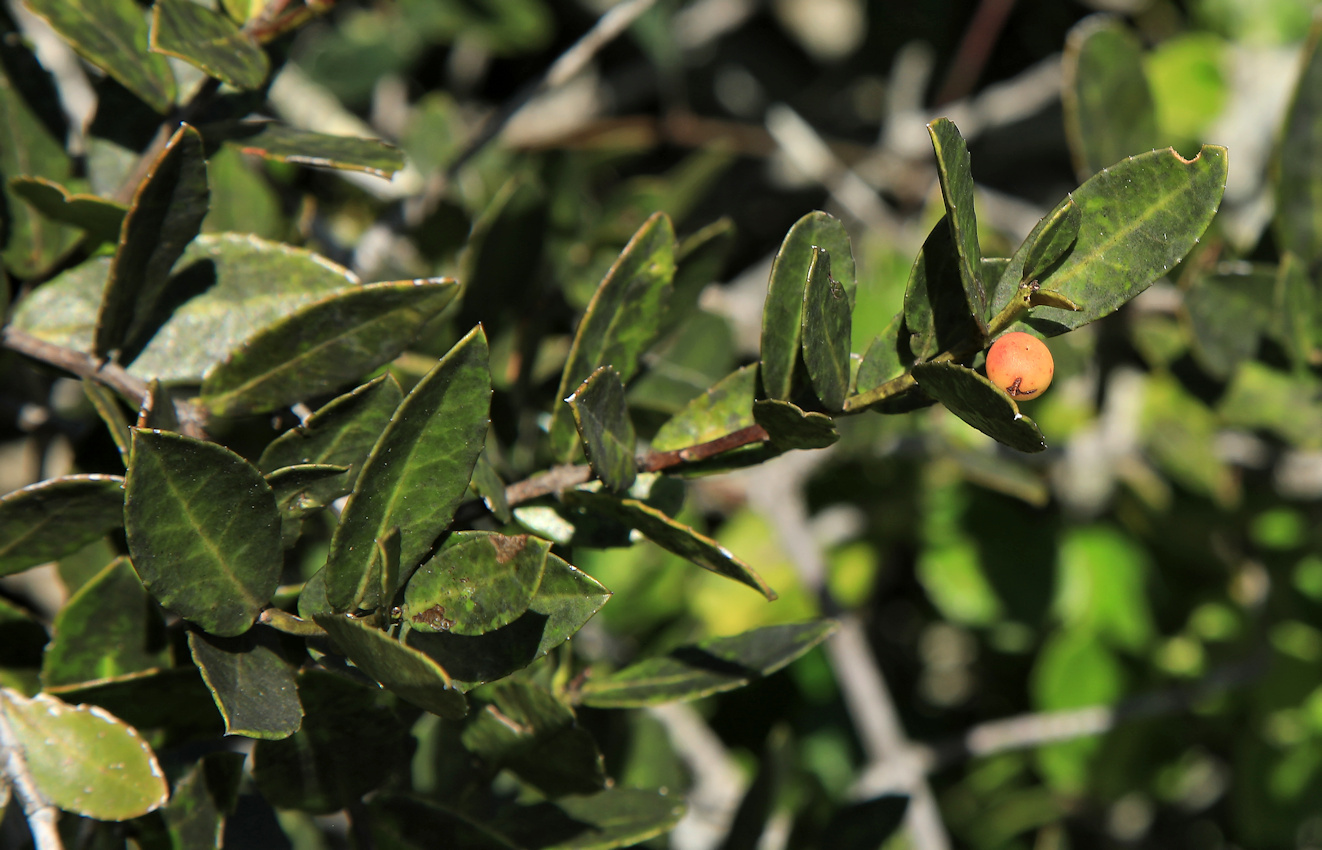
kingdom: Plantae
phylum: Tracheophyta
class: Magnoliopsida
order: Celastrales
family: Celastraceae
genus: Lauridia
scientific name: Lauridia tetragona
